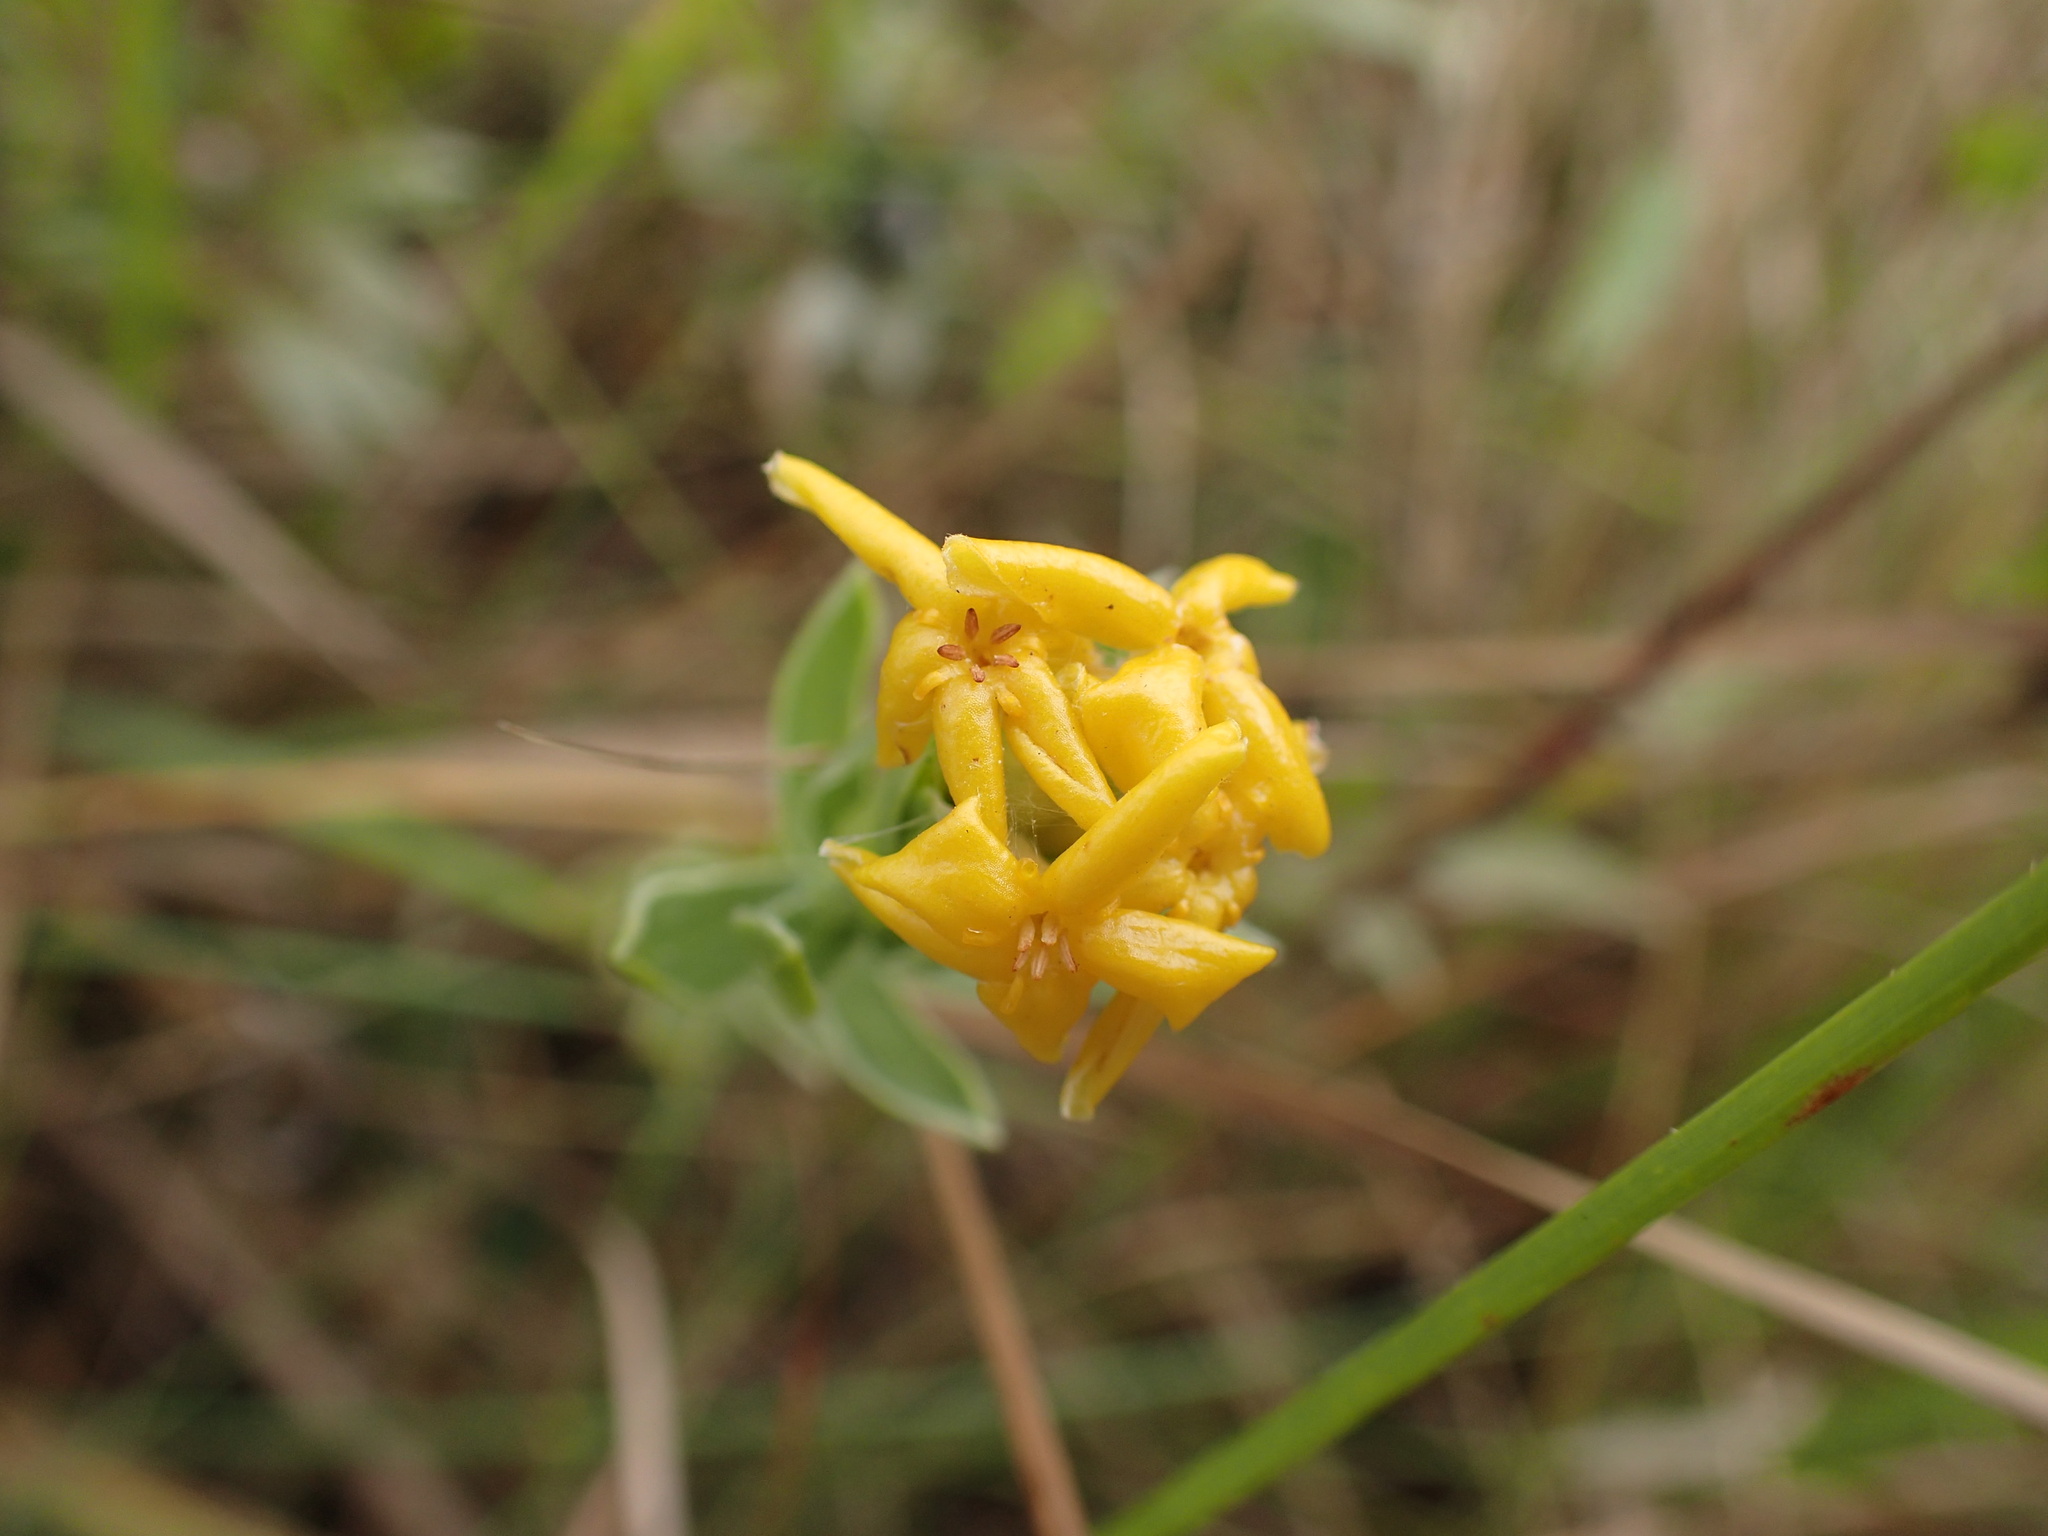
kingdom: Plantae
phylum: Tracheophyta
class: Magnoliopsida
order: Malvales
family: Thymelaeaceae
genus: Gnidia
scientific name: Gnidia capitata
